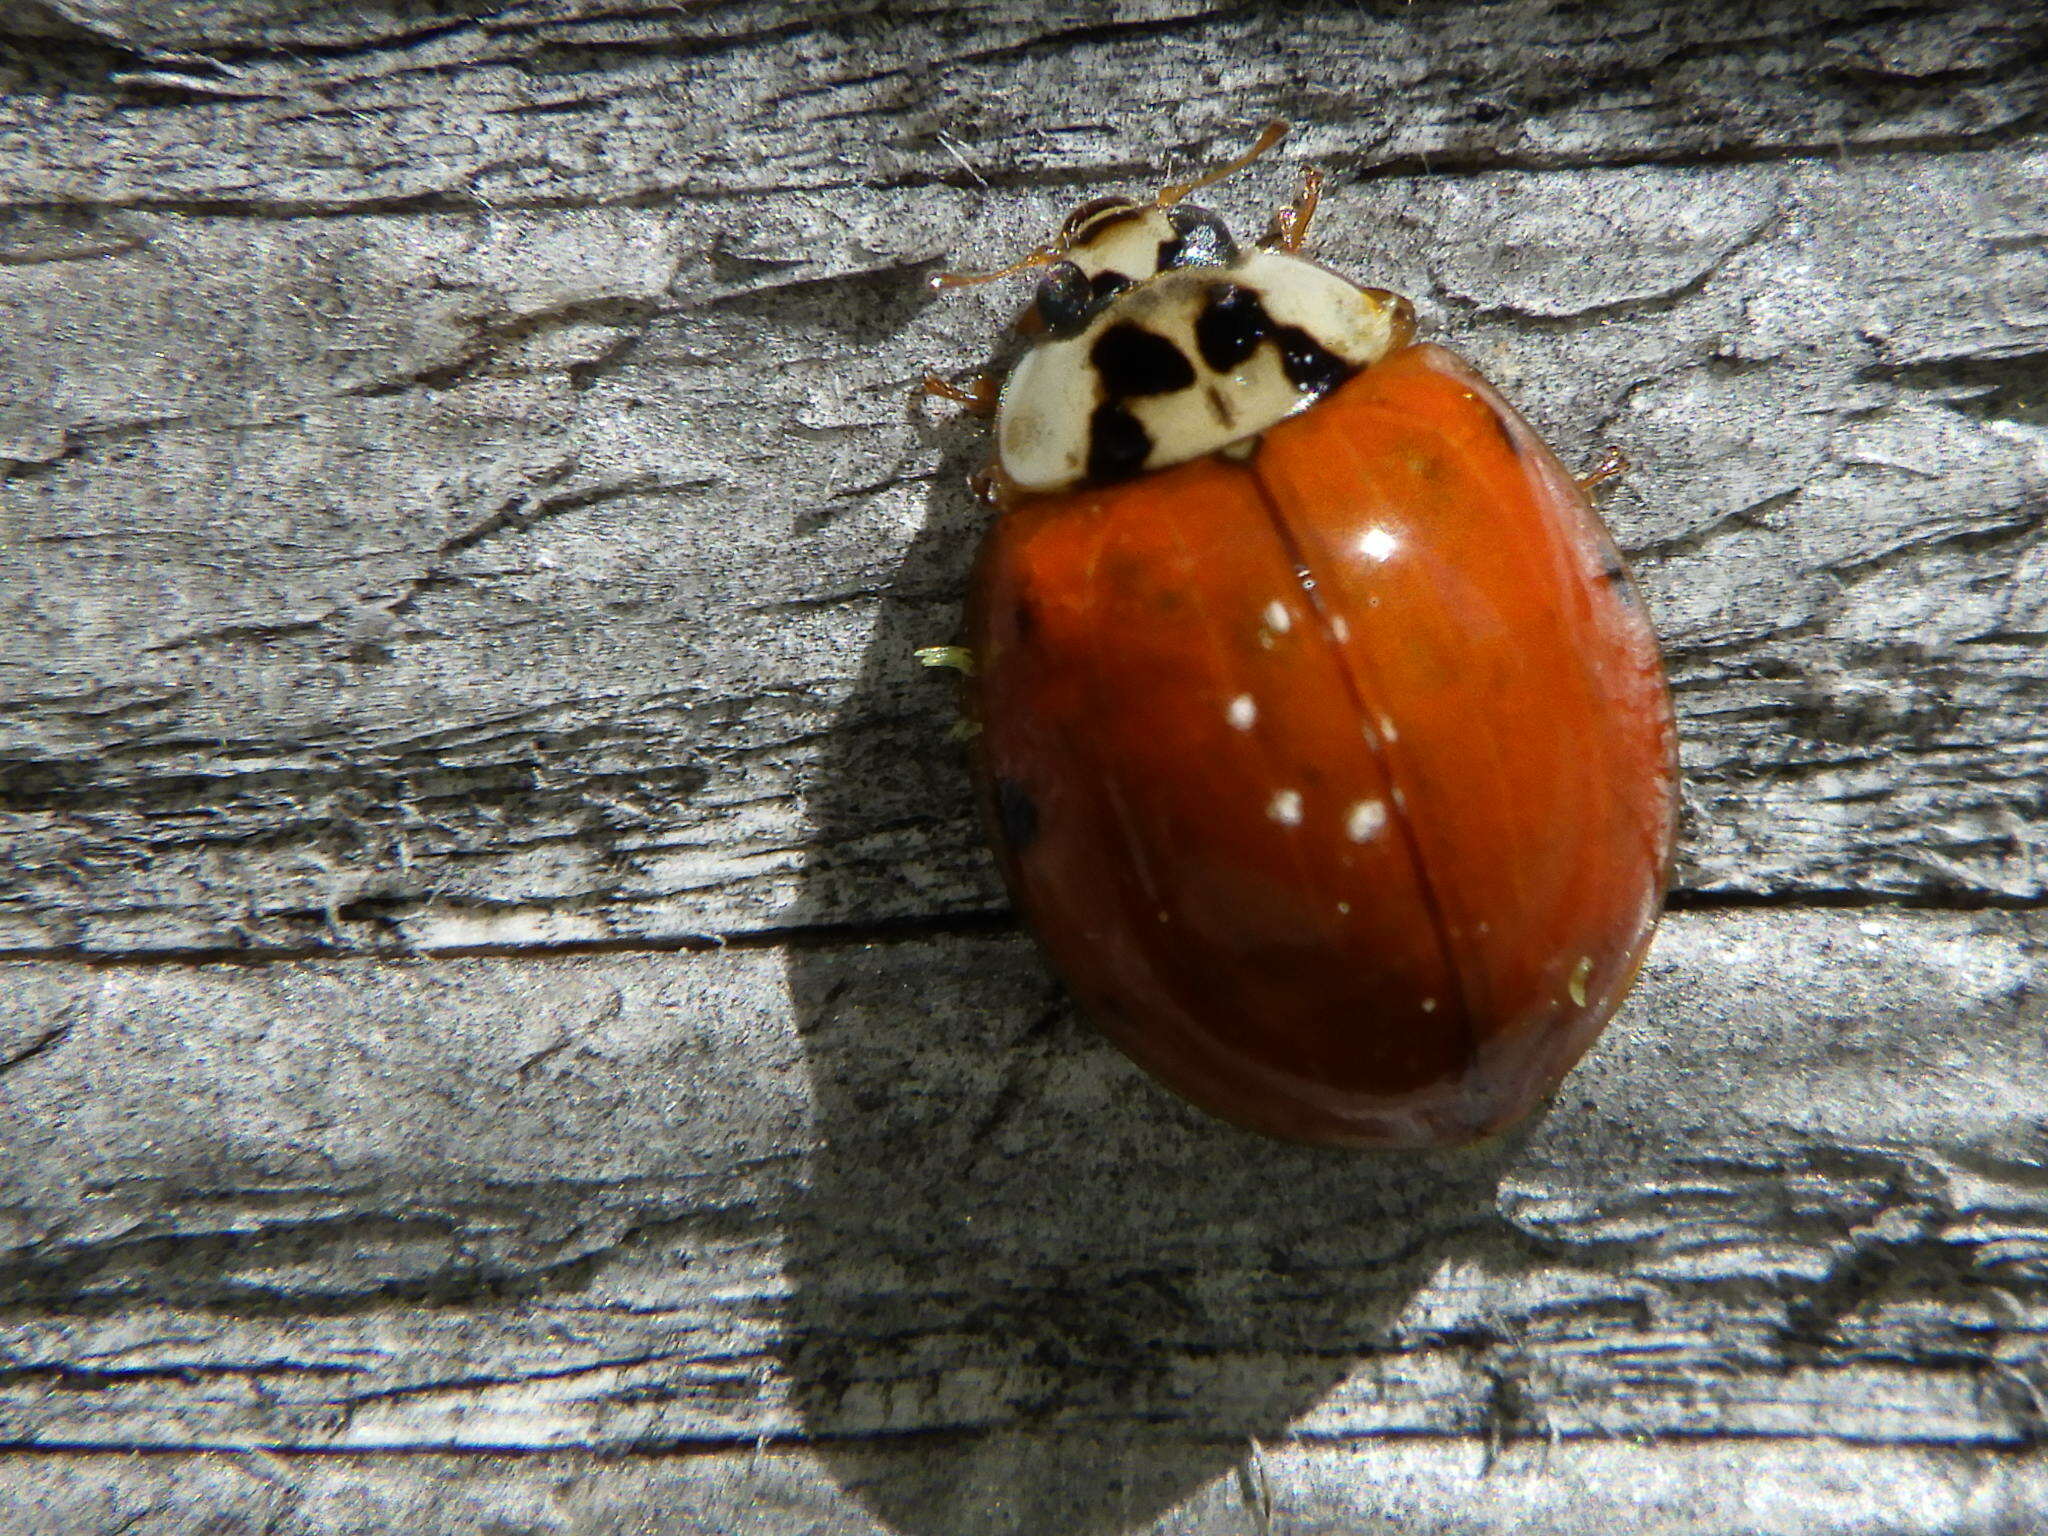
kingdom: Animalia
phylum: Arthropoda
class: Insecta
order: Coleoptera
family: Coccinellidae
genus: Harmonia
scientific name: Harmonia axyridis
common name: Harlequin ladybird
